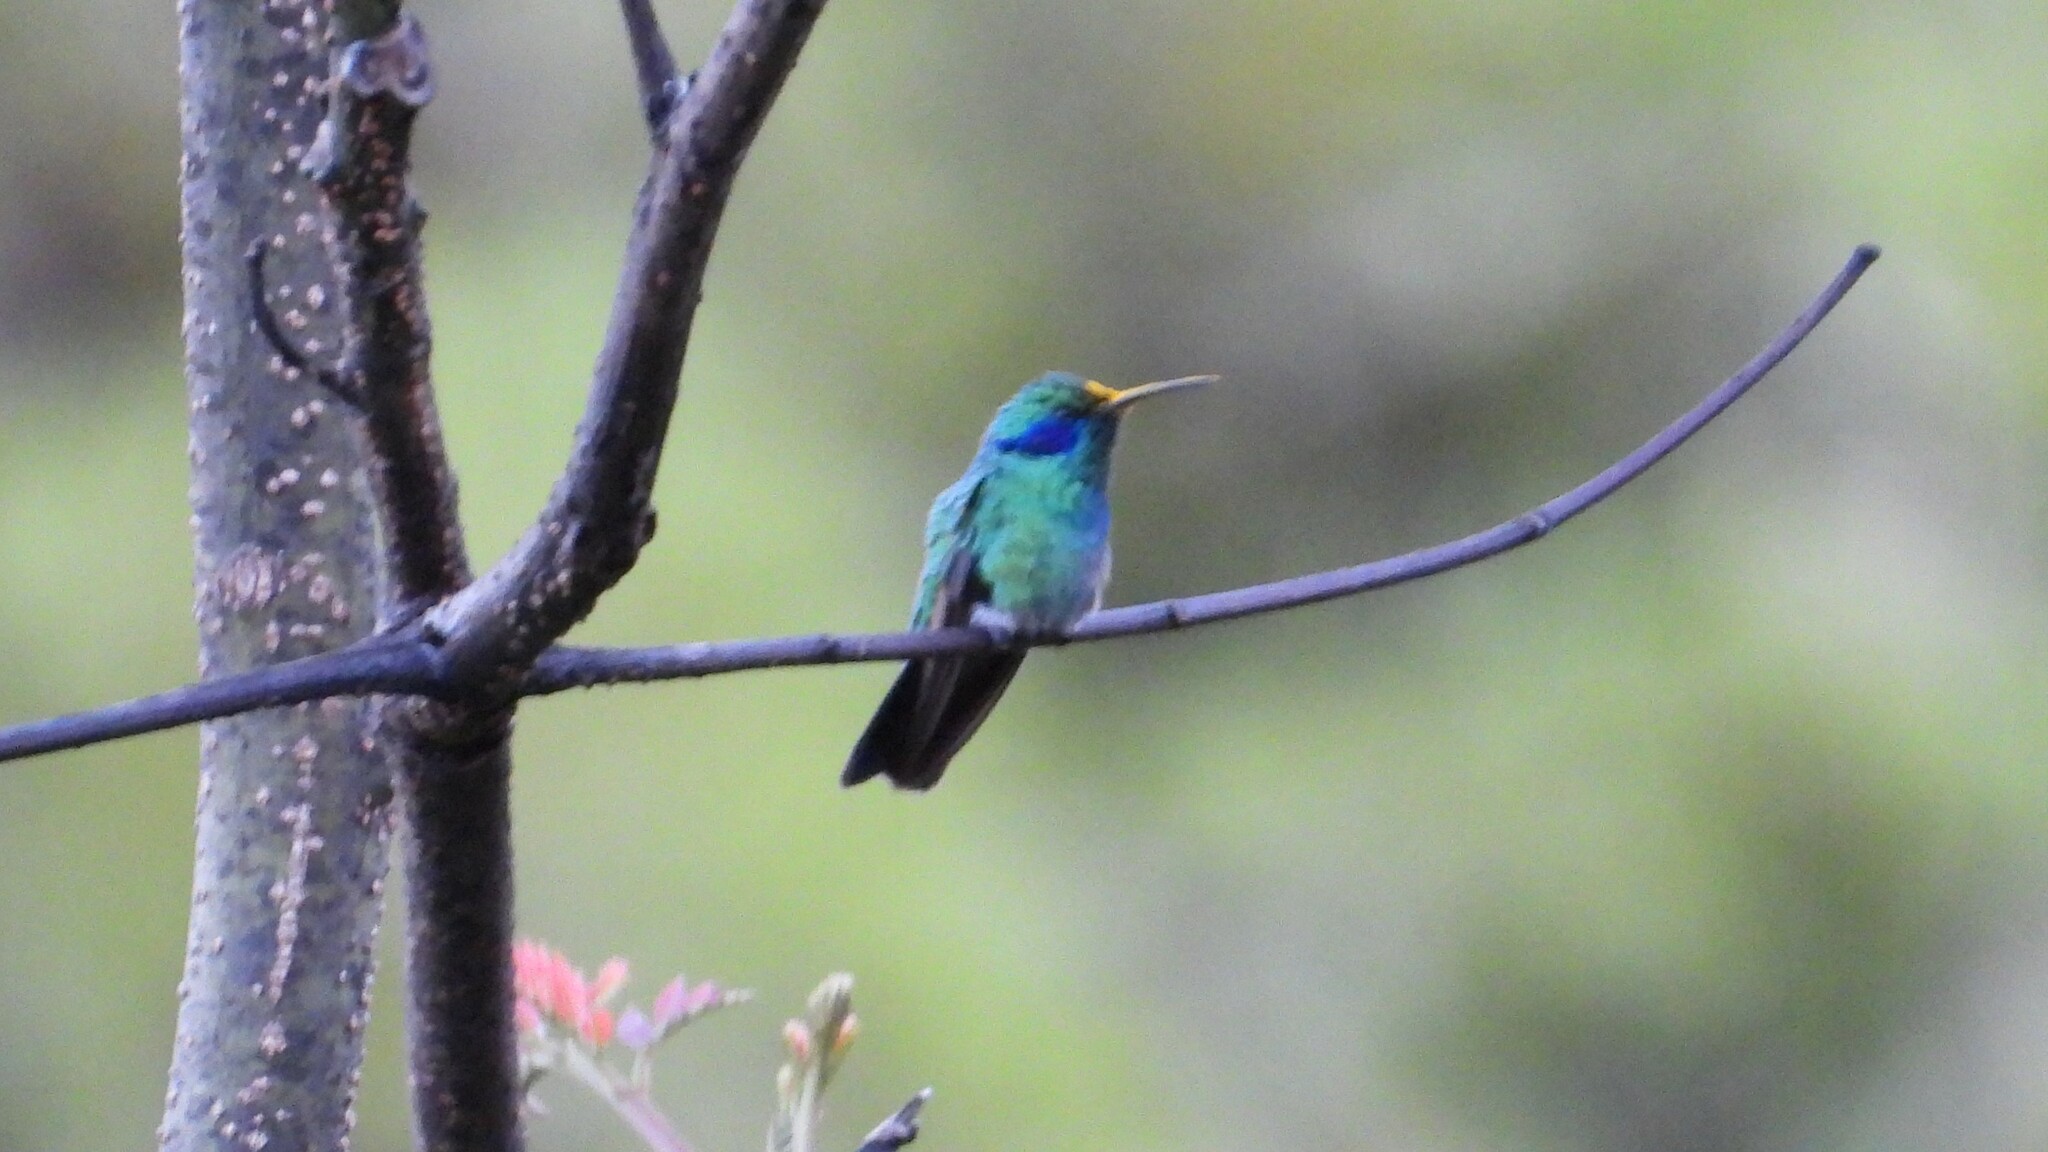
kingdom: Animalia
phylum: Chordata
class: Aves
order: Apodiformes
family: Trochilidae
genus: Colibri
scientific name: Colibri cyanotus
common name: Lesser violetear
